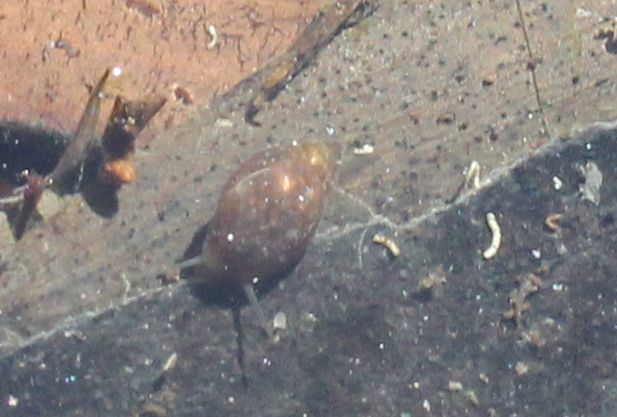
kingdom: Animalia
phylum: Mollusca
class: Gastropoda
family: Physidae
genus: Physella
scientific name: Physella acuta
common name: European physa
